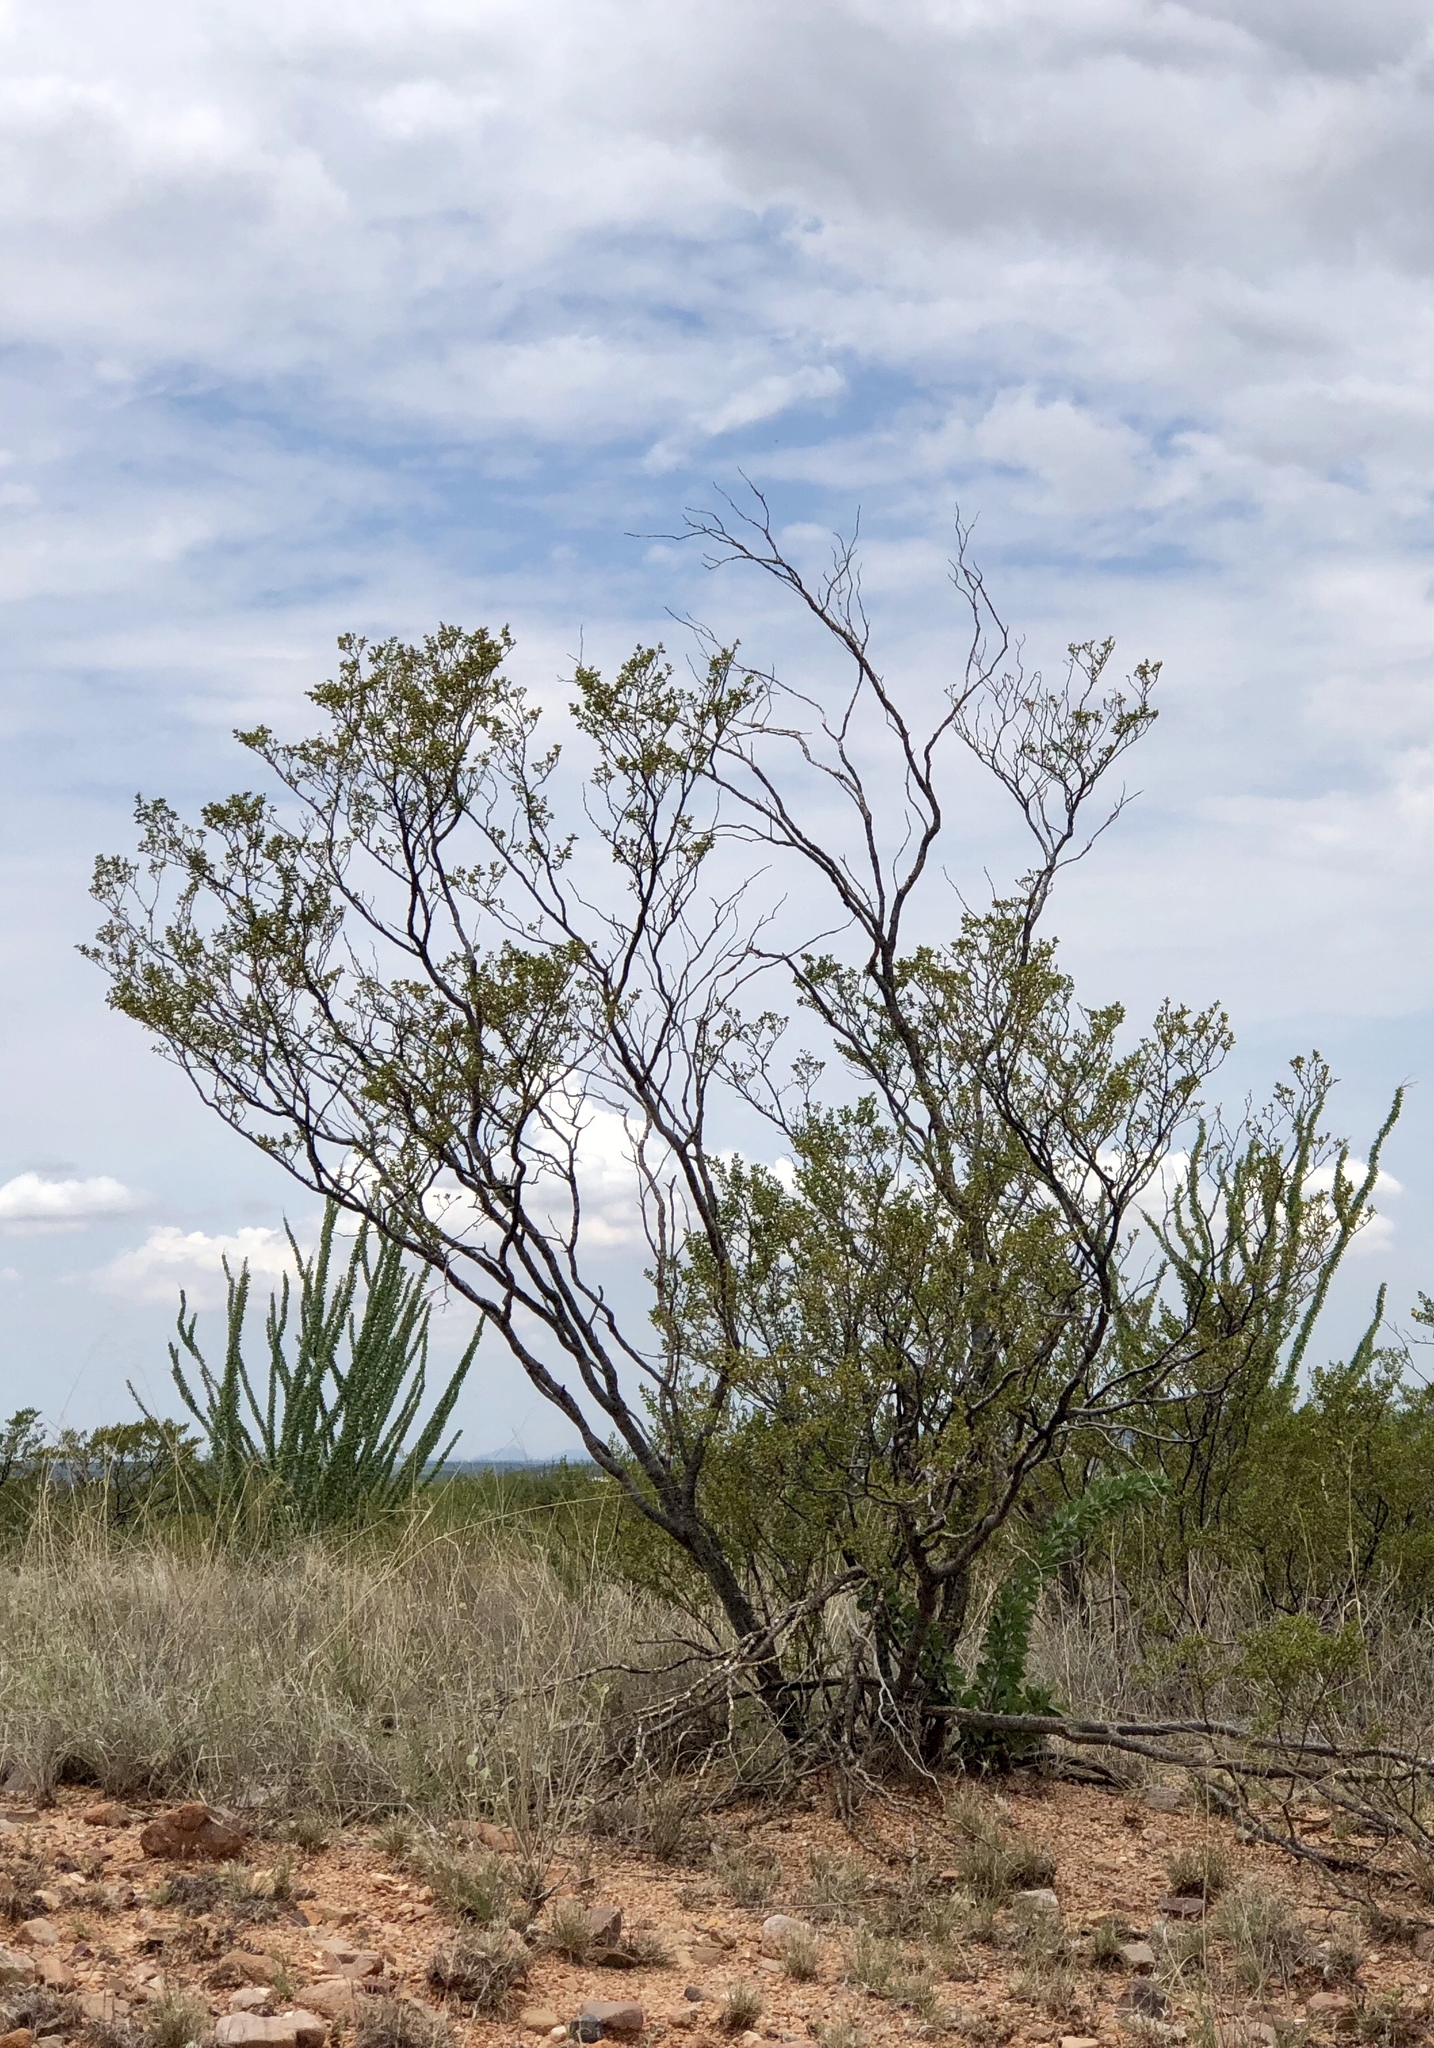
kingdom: Plantae
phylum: Tracheophyta
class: Magnoliopsida
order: Zygophyllales
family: Zygophyllaceae
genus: Larrea
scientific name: Larrea tridentata
